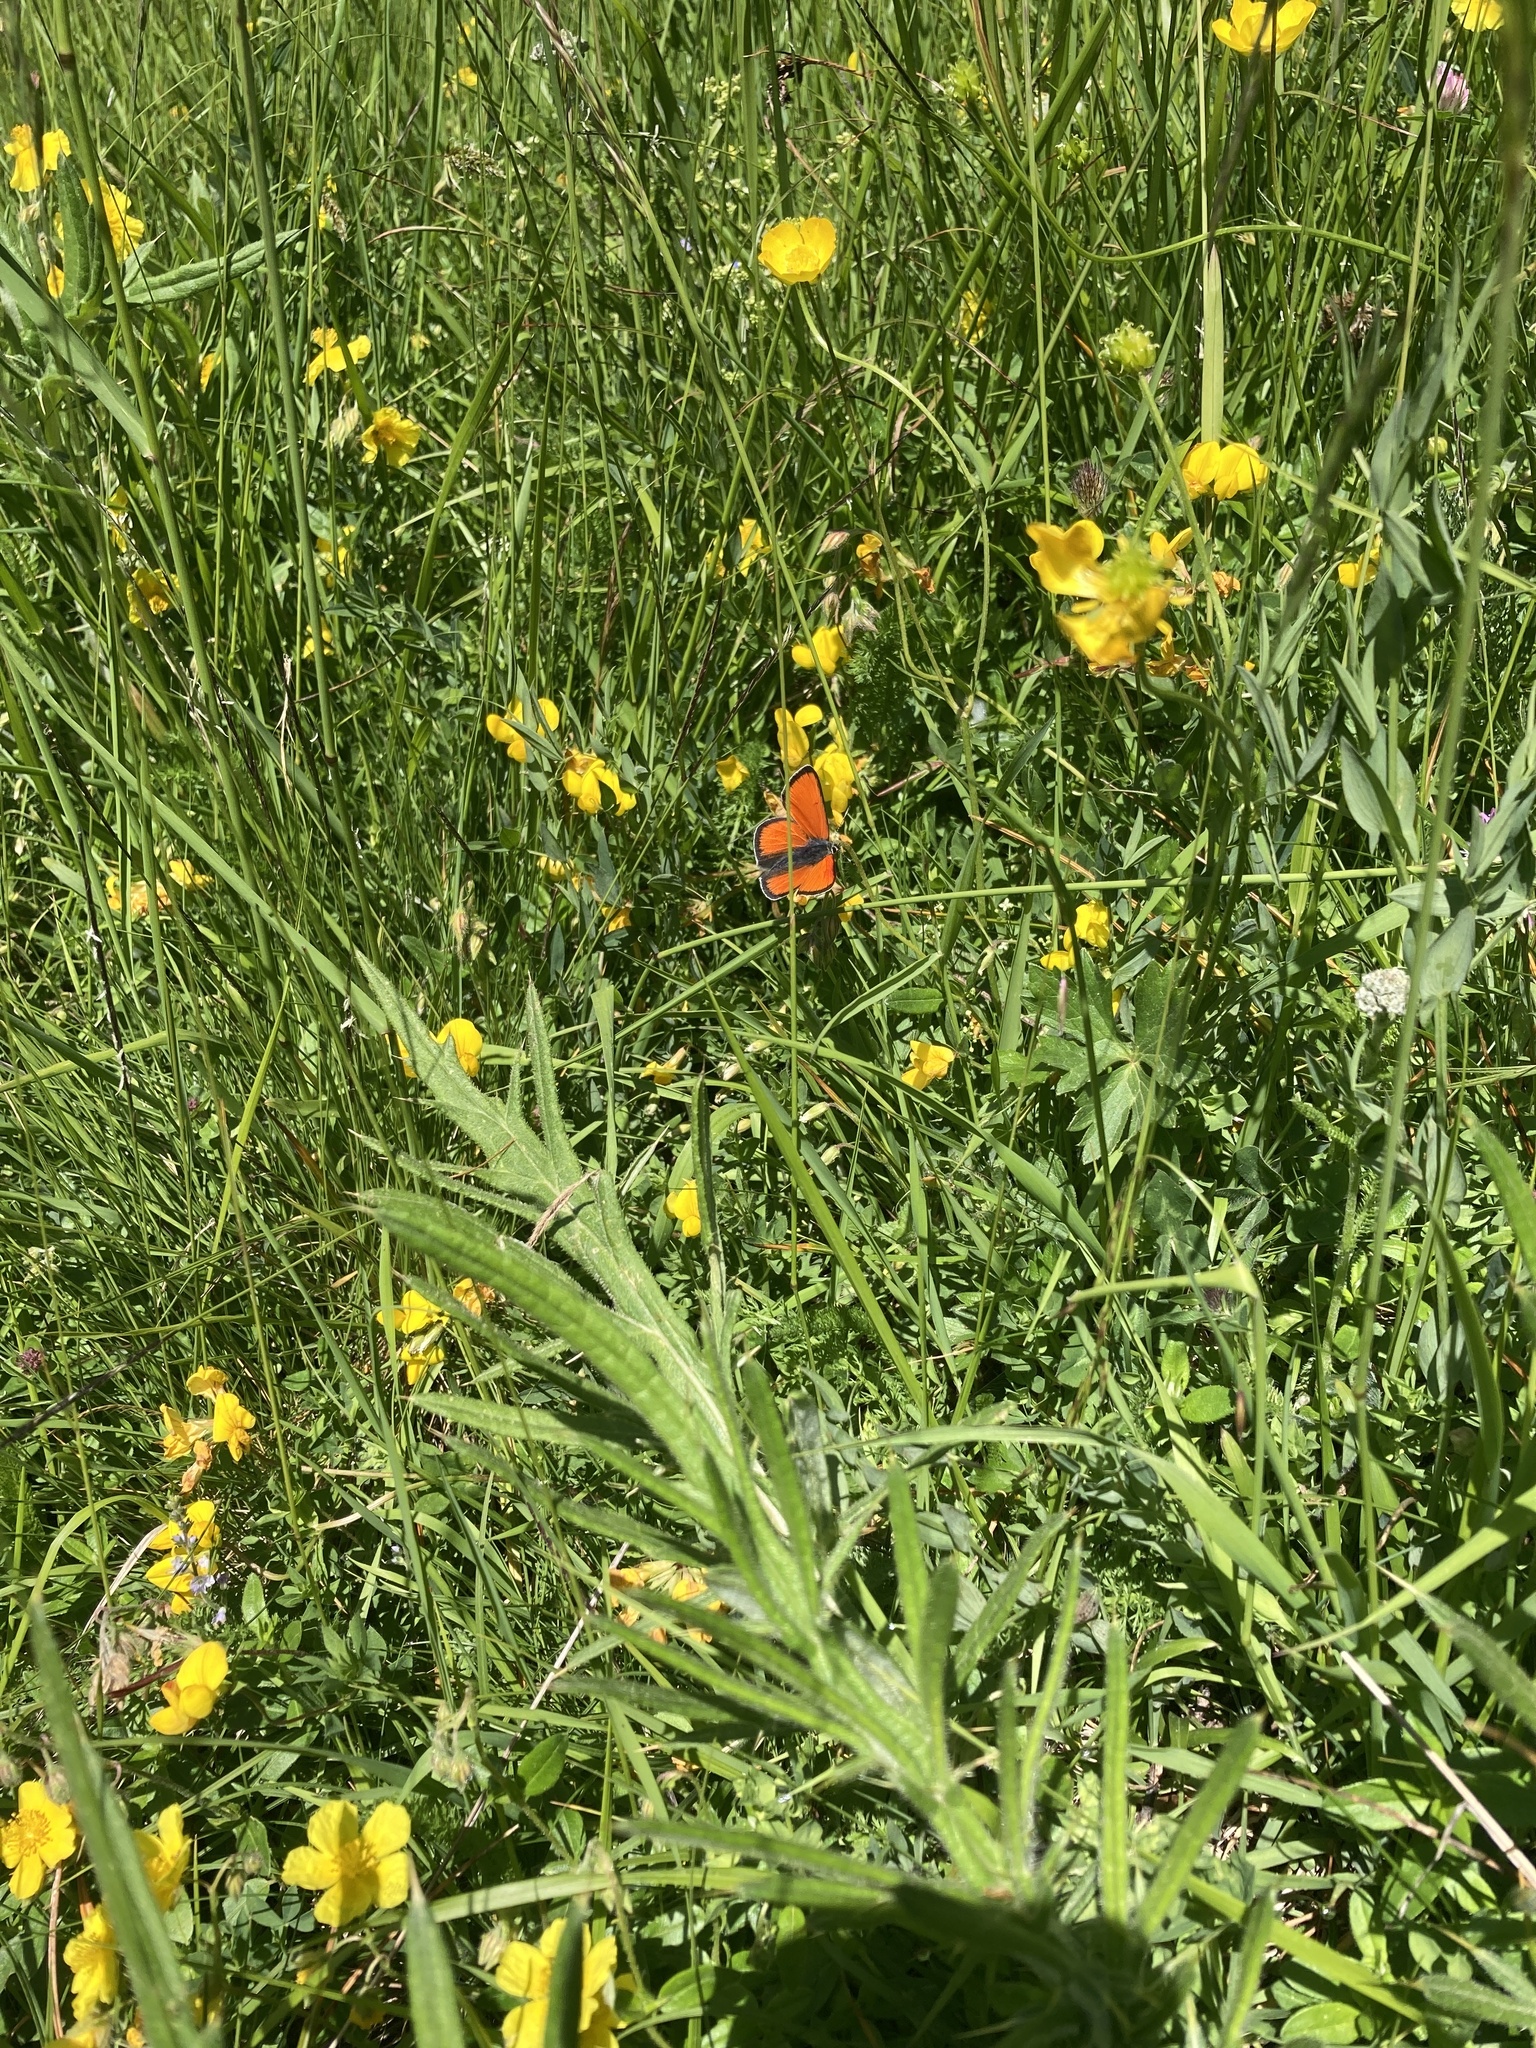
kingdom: Animalia
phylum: Arthropoda
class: Insecta
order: Lepidoptera
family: Lycaenidae
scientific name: Lycaenidae
